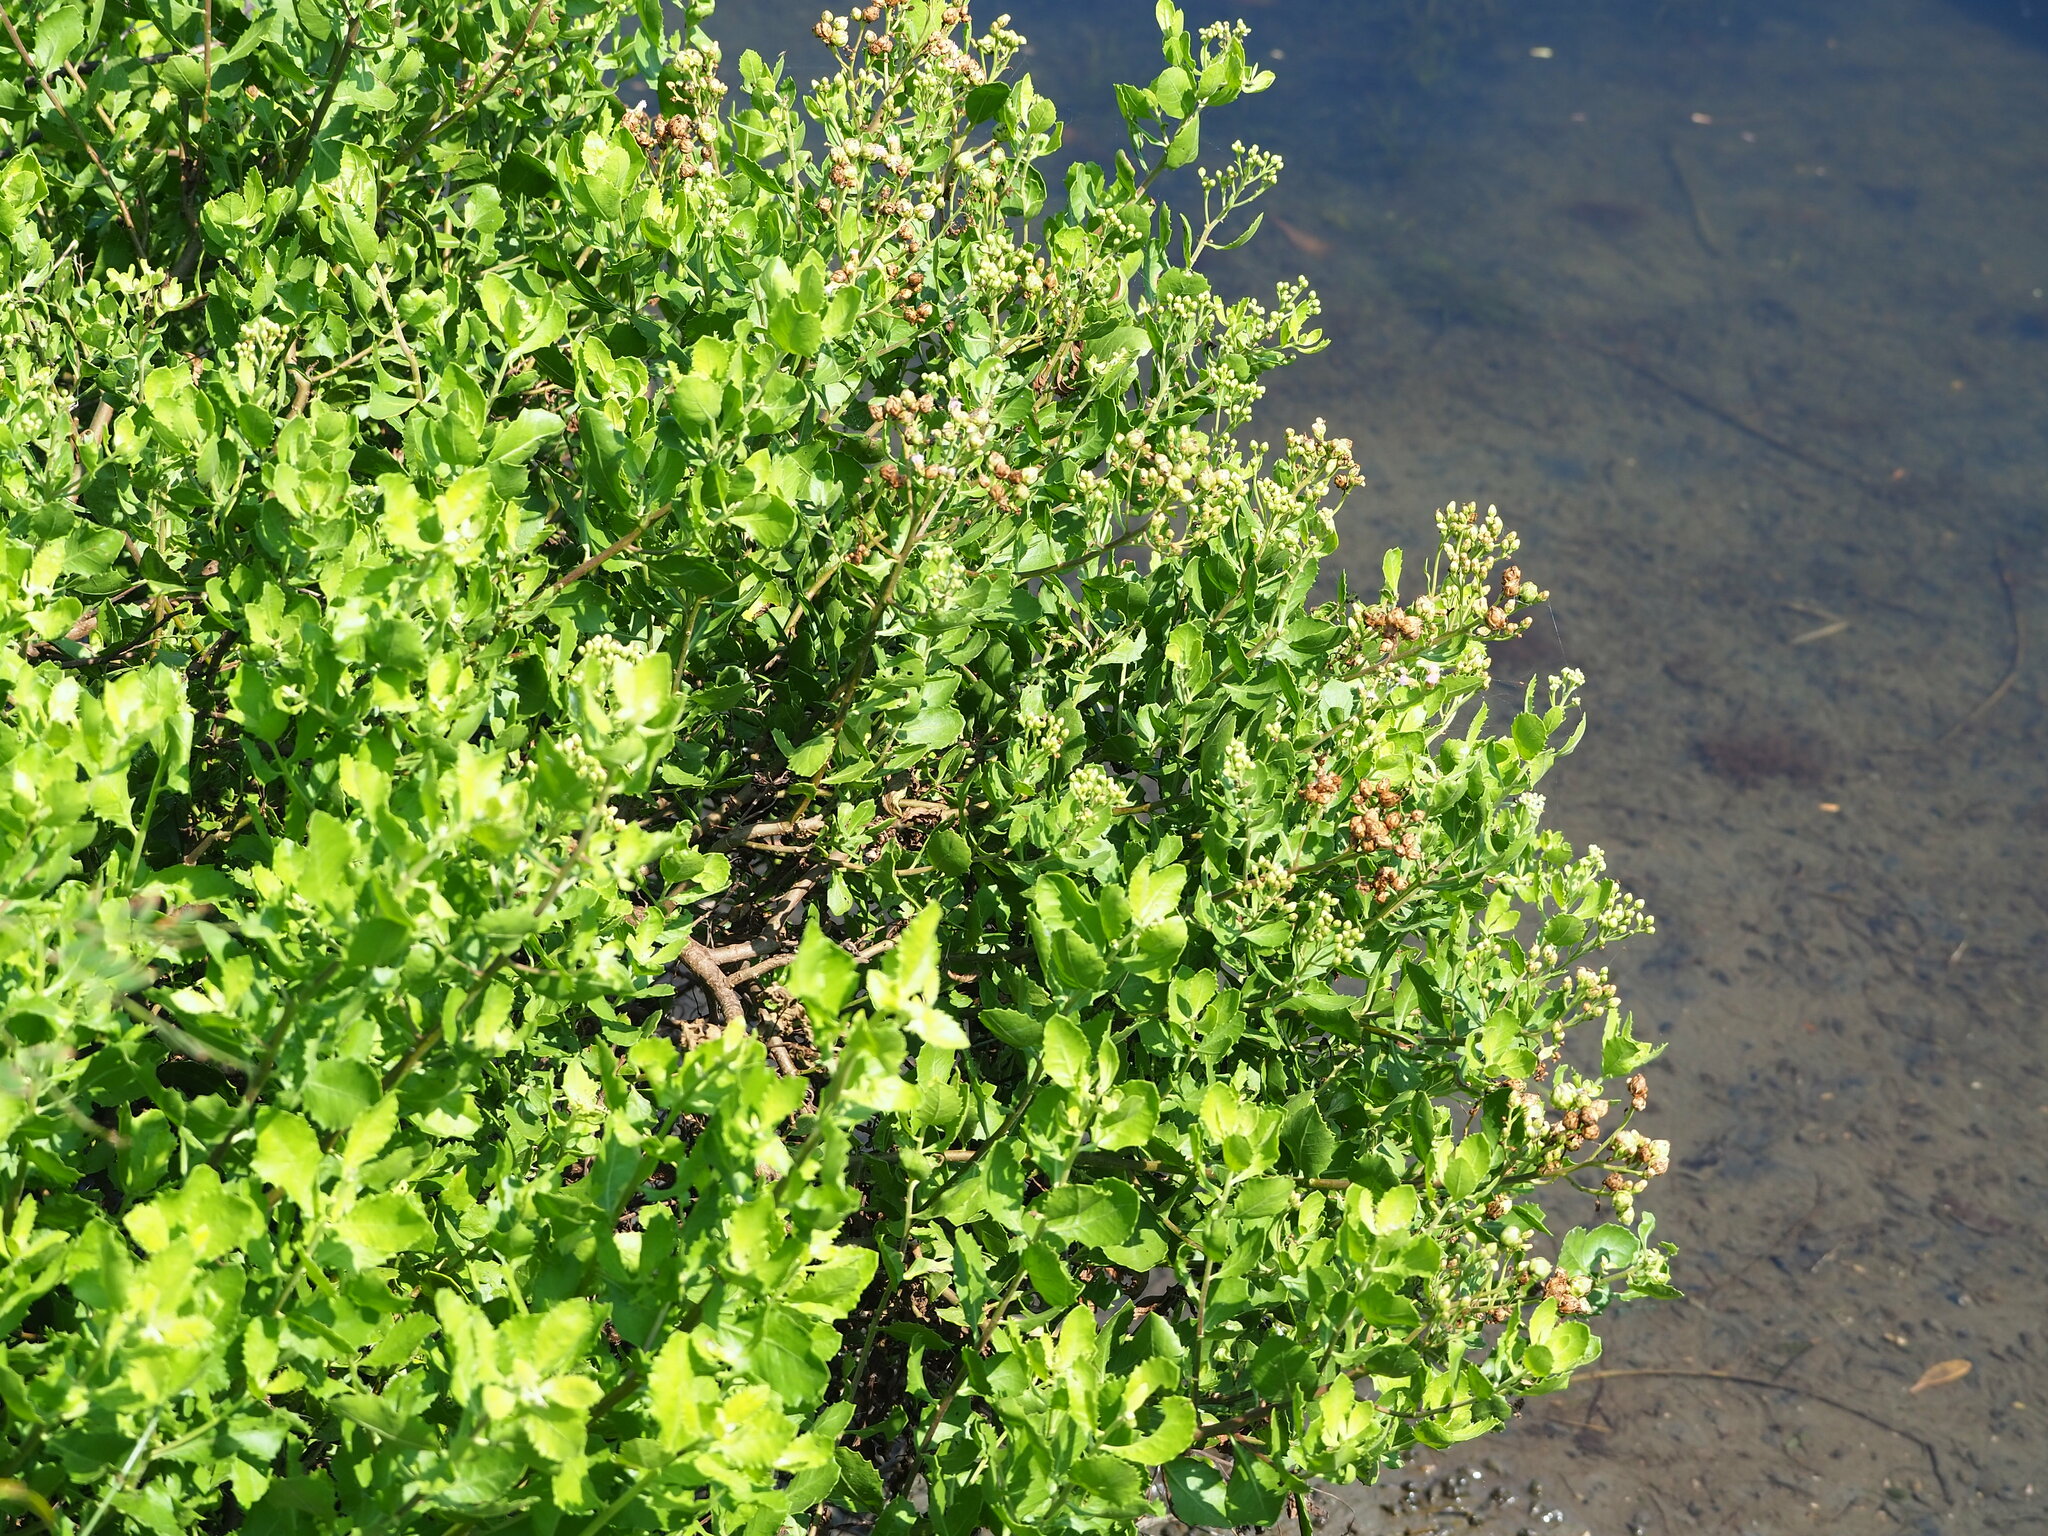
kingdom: Plantae
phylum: Tracheophyta
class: Magnoliopsida
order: Asterales
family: Asteraceae
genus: Pluchea
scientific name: Pluchea indica
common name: Indian fleabane
